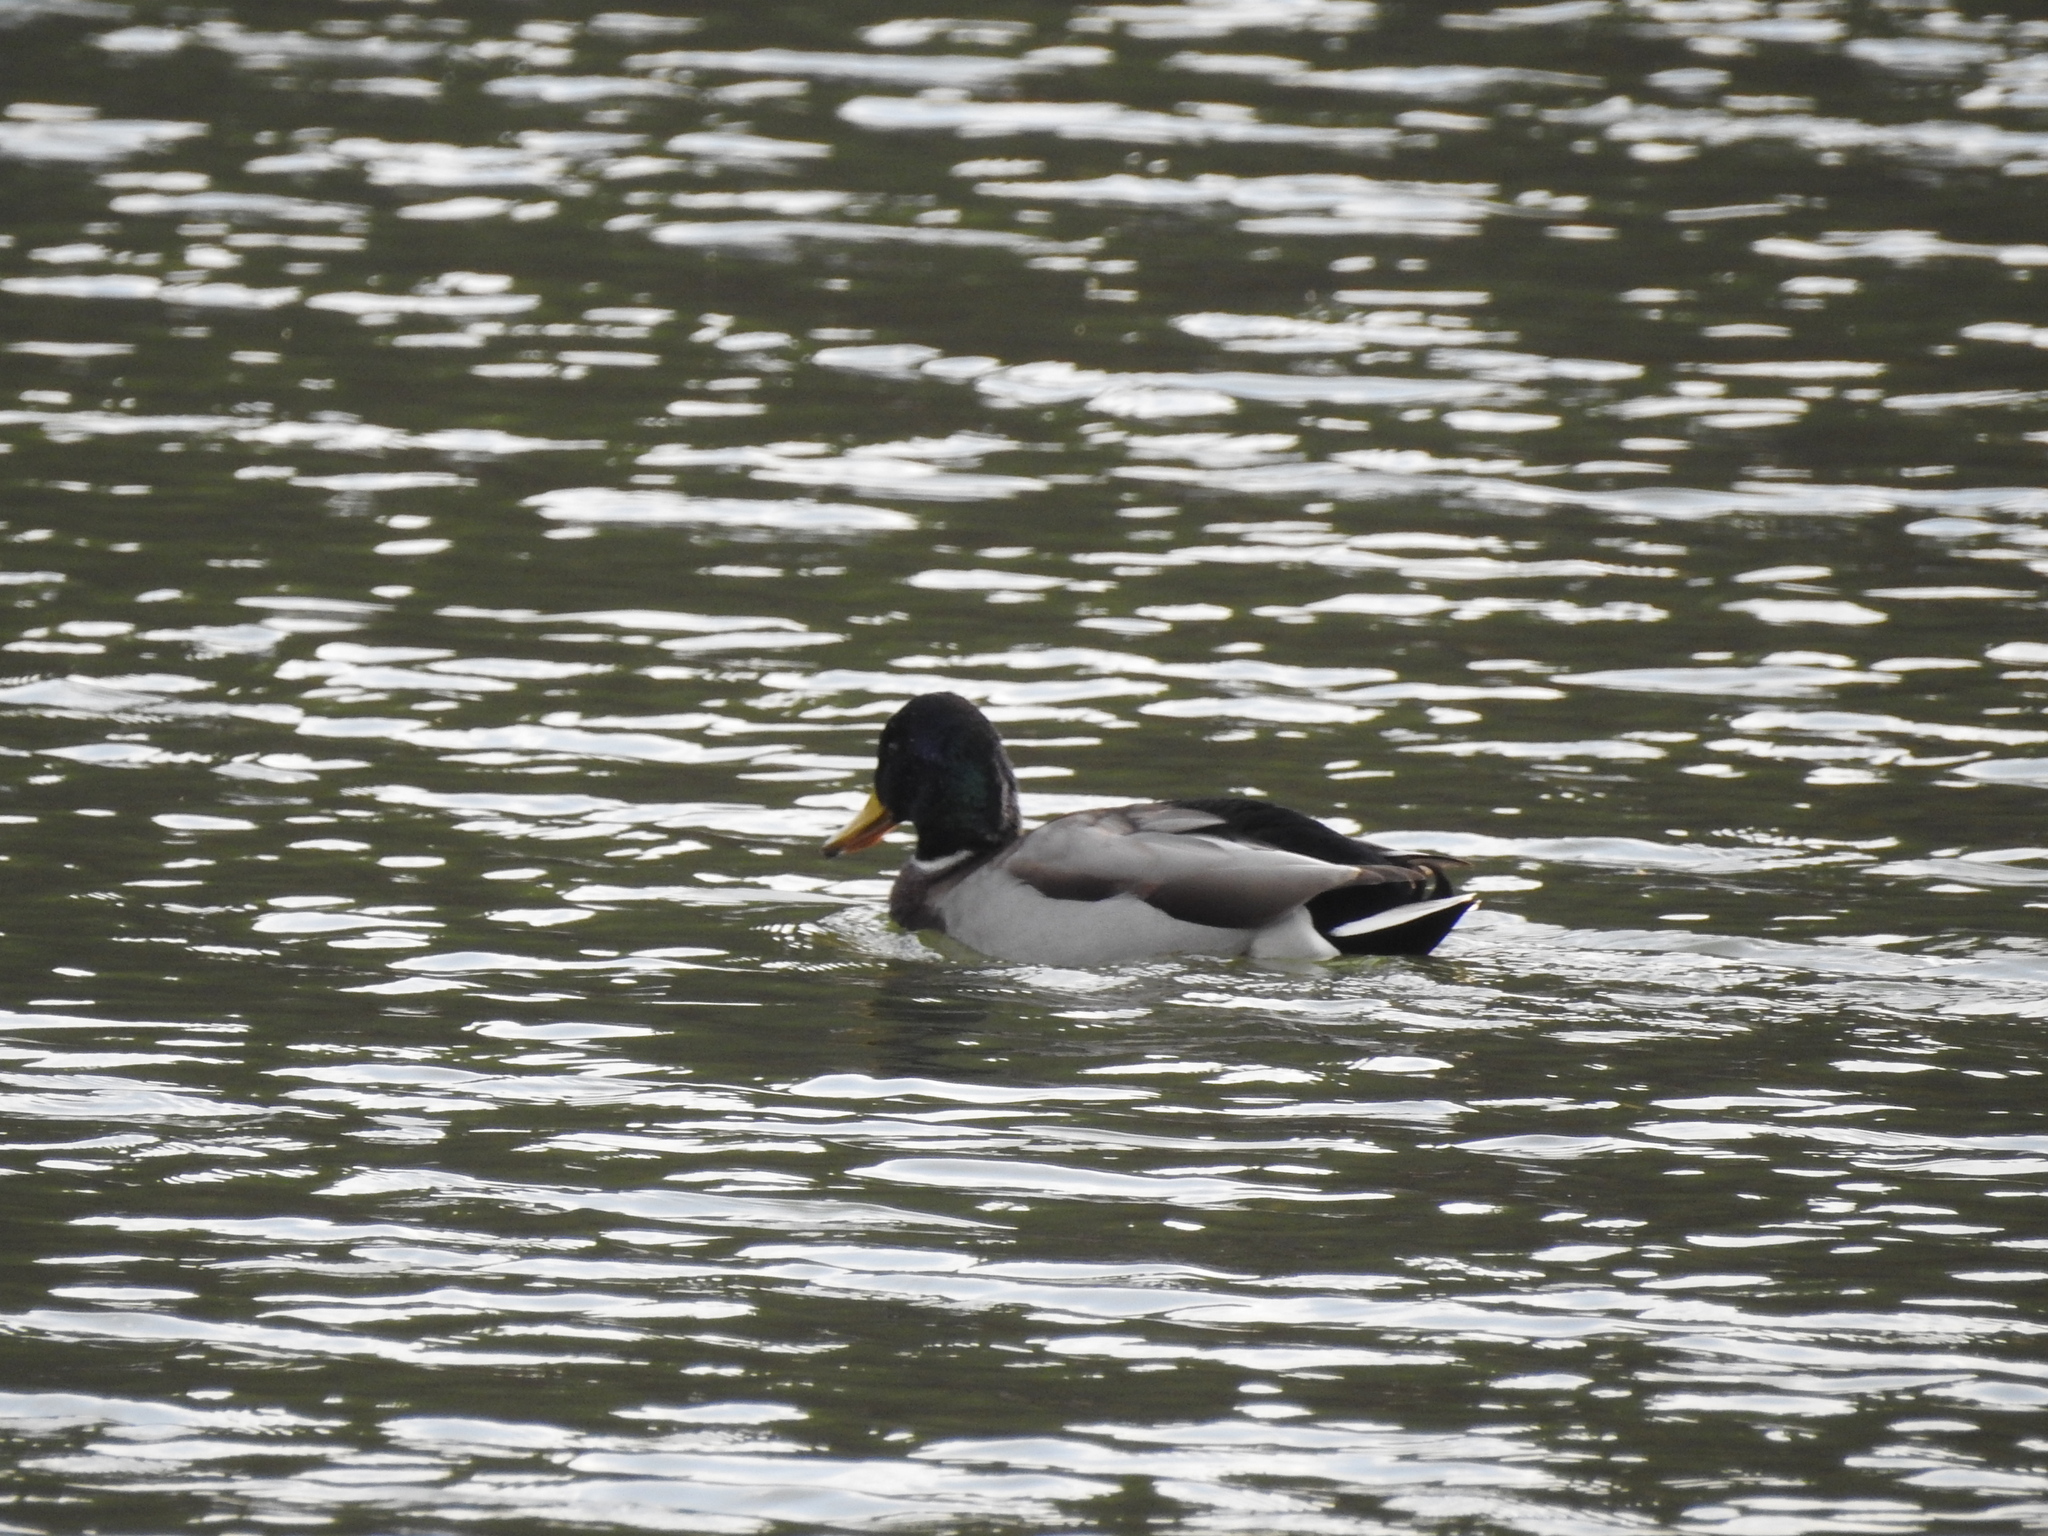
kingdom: Animalia
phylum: Chordata
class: Aves
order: Anseriformes
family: Anatidae
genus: Anas
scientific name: Anas platyrhynchos
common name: Mallard
